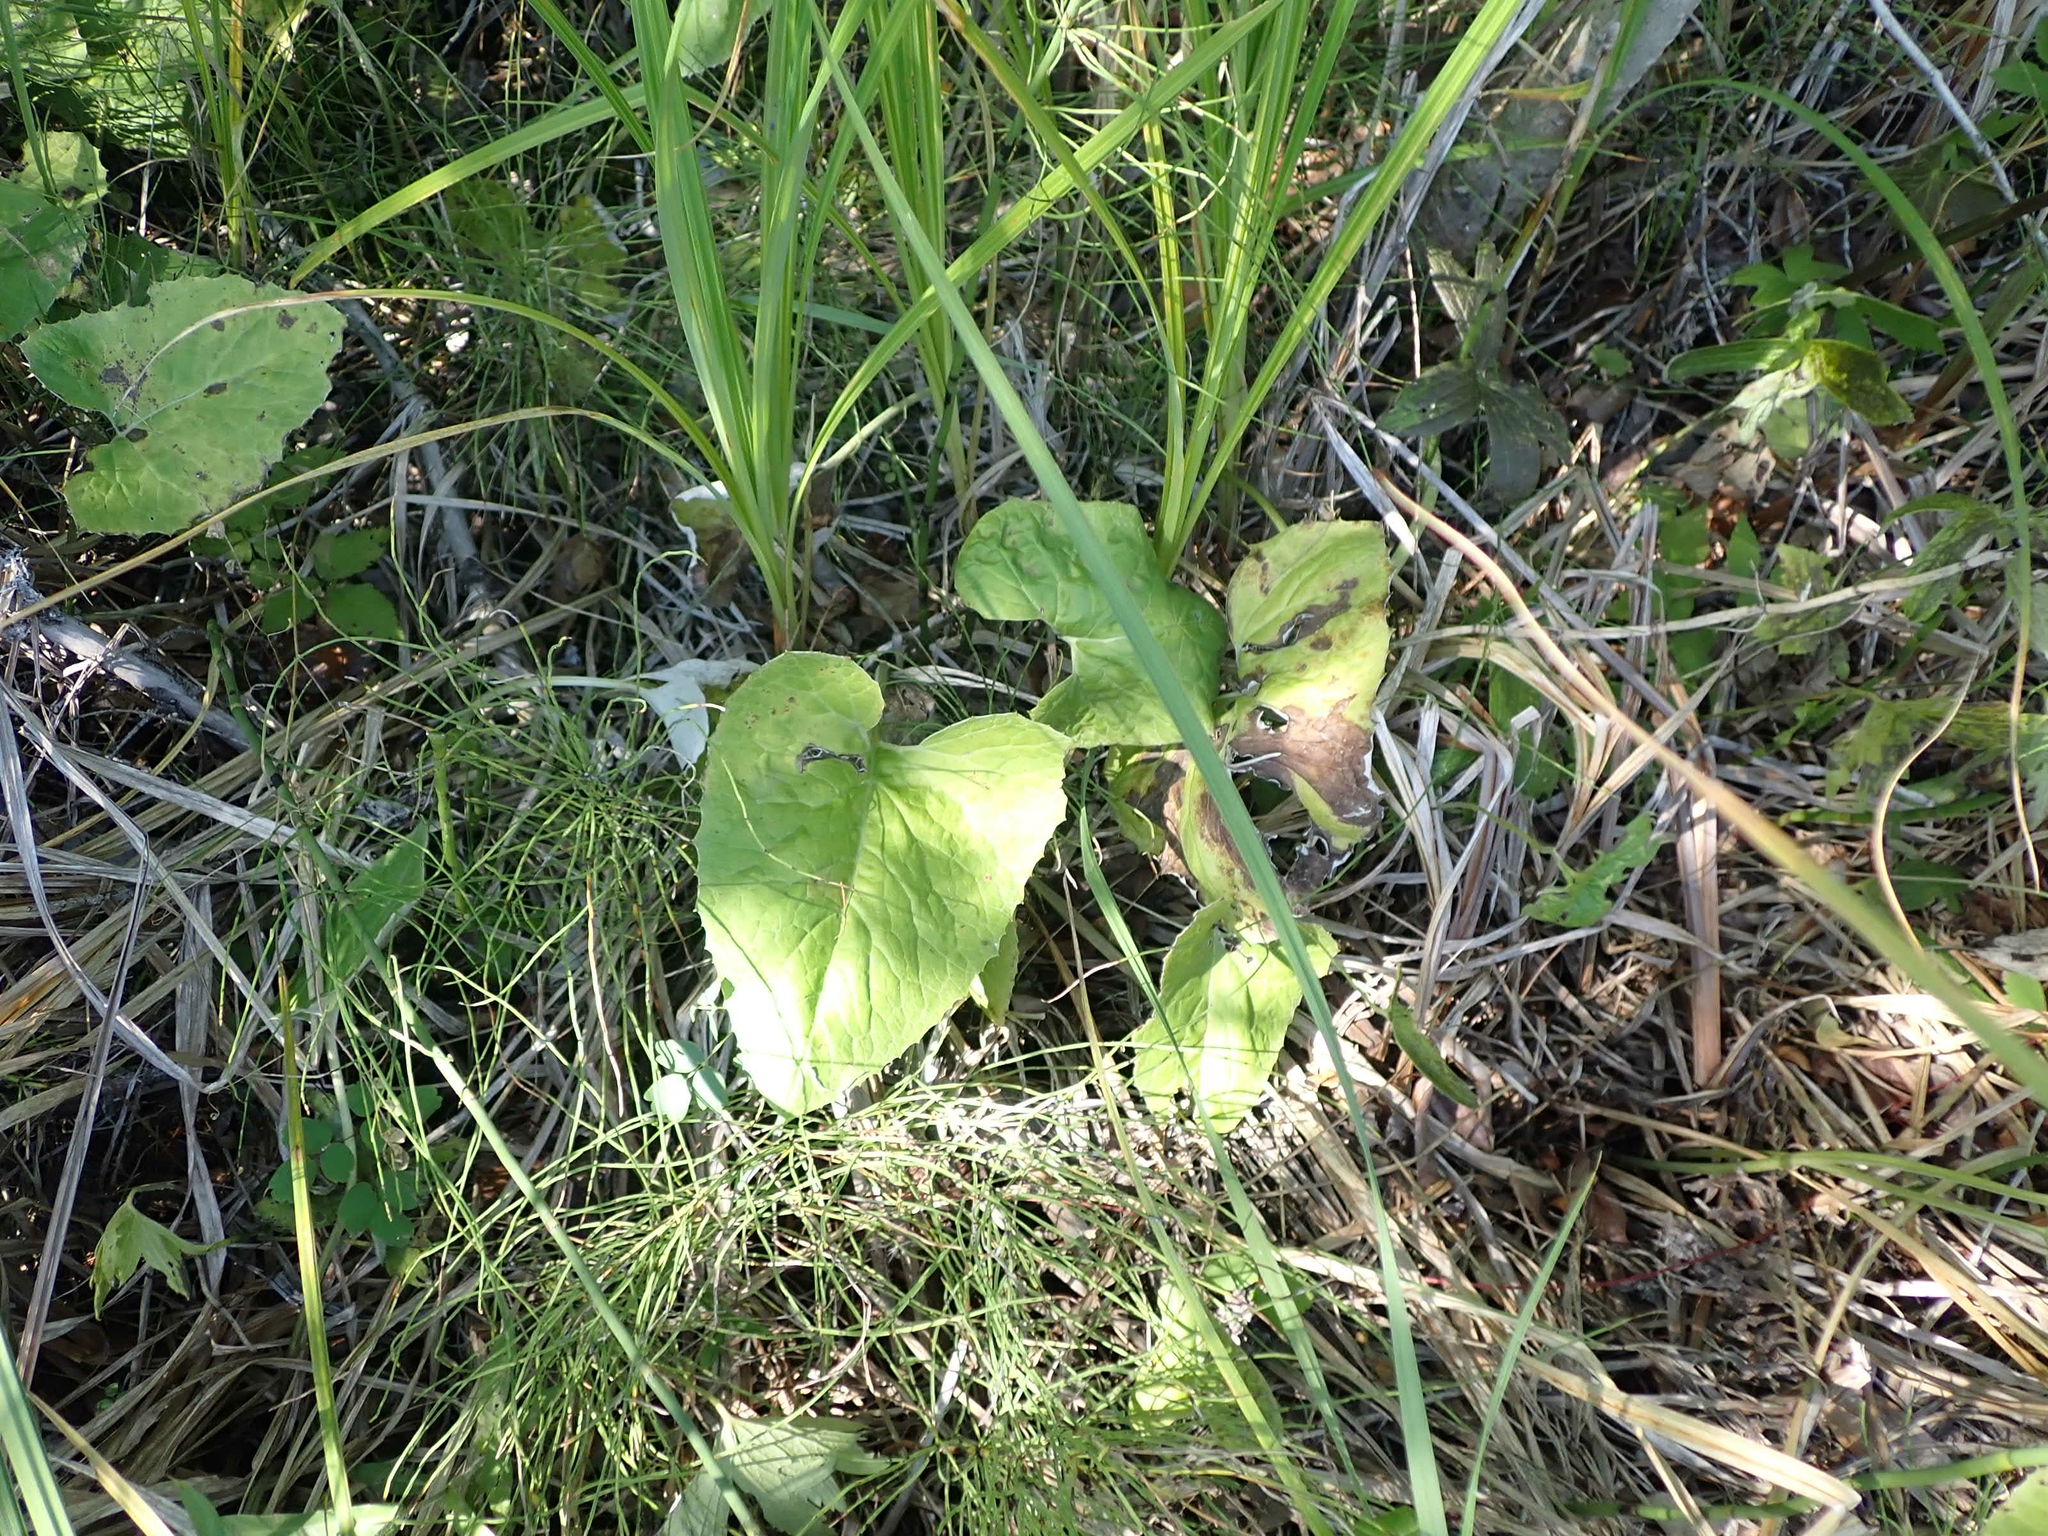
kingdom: Plantae
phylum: Tracheophyta
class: Magnoliopsida
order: Asterales
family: Asteraceae
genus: Petasites
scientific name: Petasites frigidus
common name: Arctic butterbur
